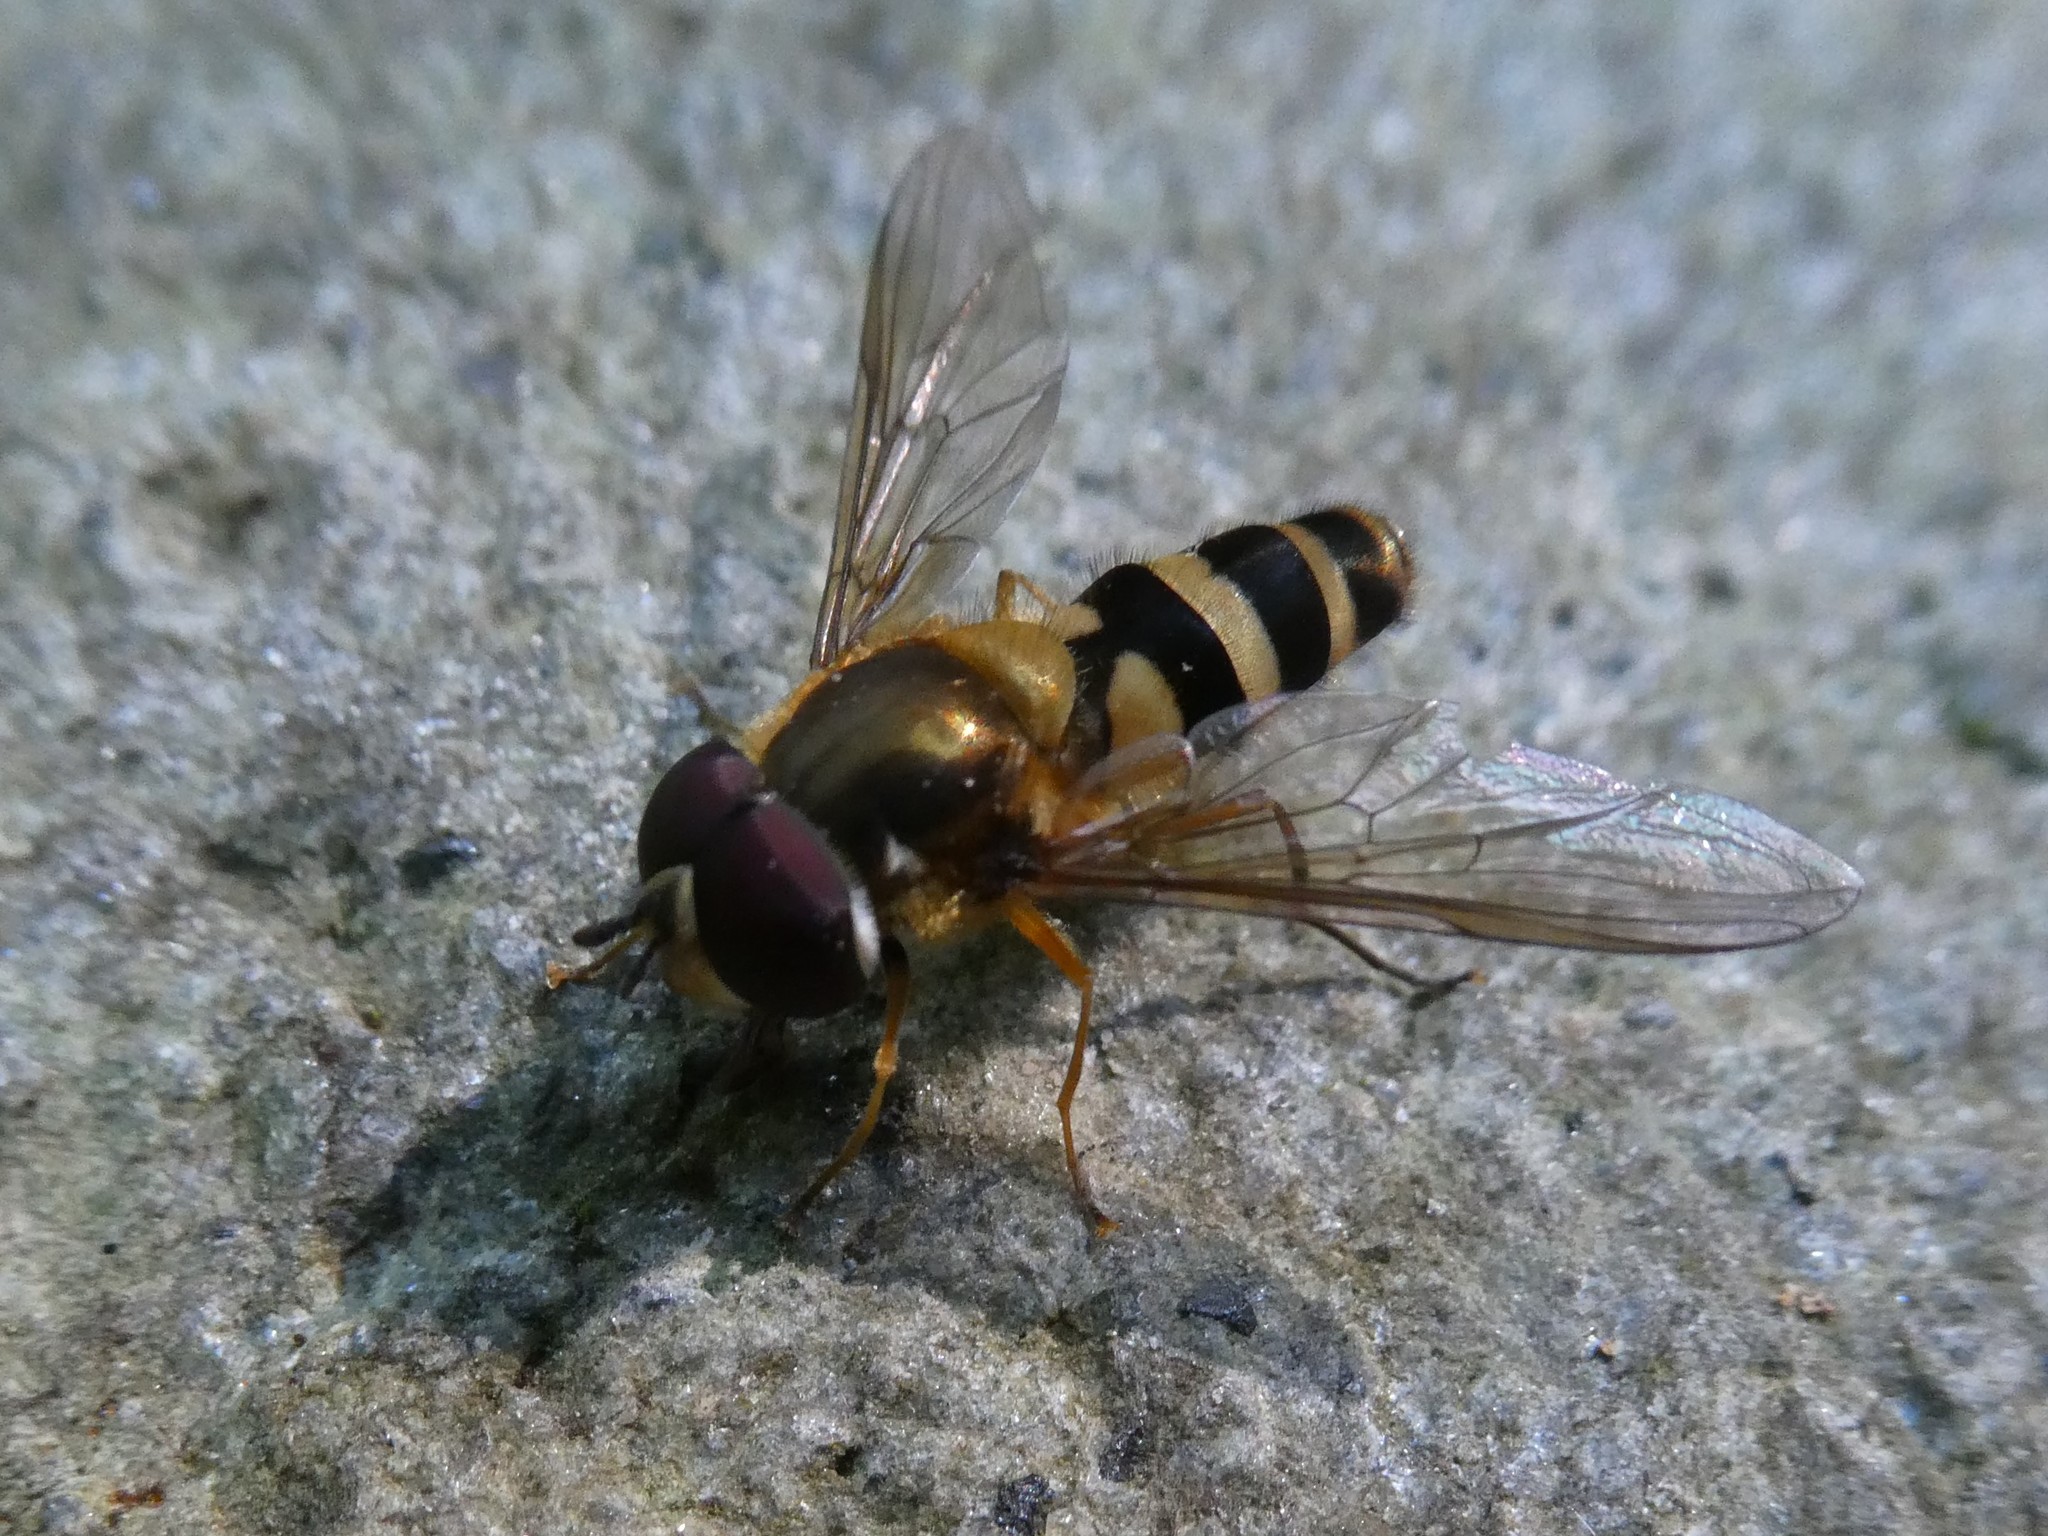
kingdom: Animalia
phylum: Arthropoda
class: Insecta
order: Diptera
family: Syrphidae
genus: Epistrophe
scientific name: Epistrophe grossulariae
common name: Black-horned smoothtail
